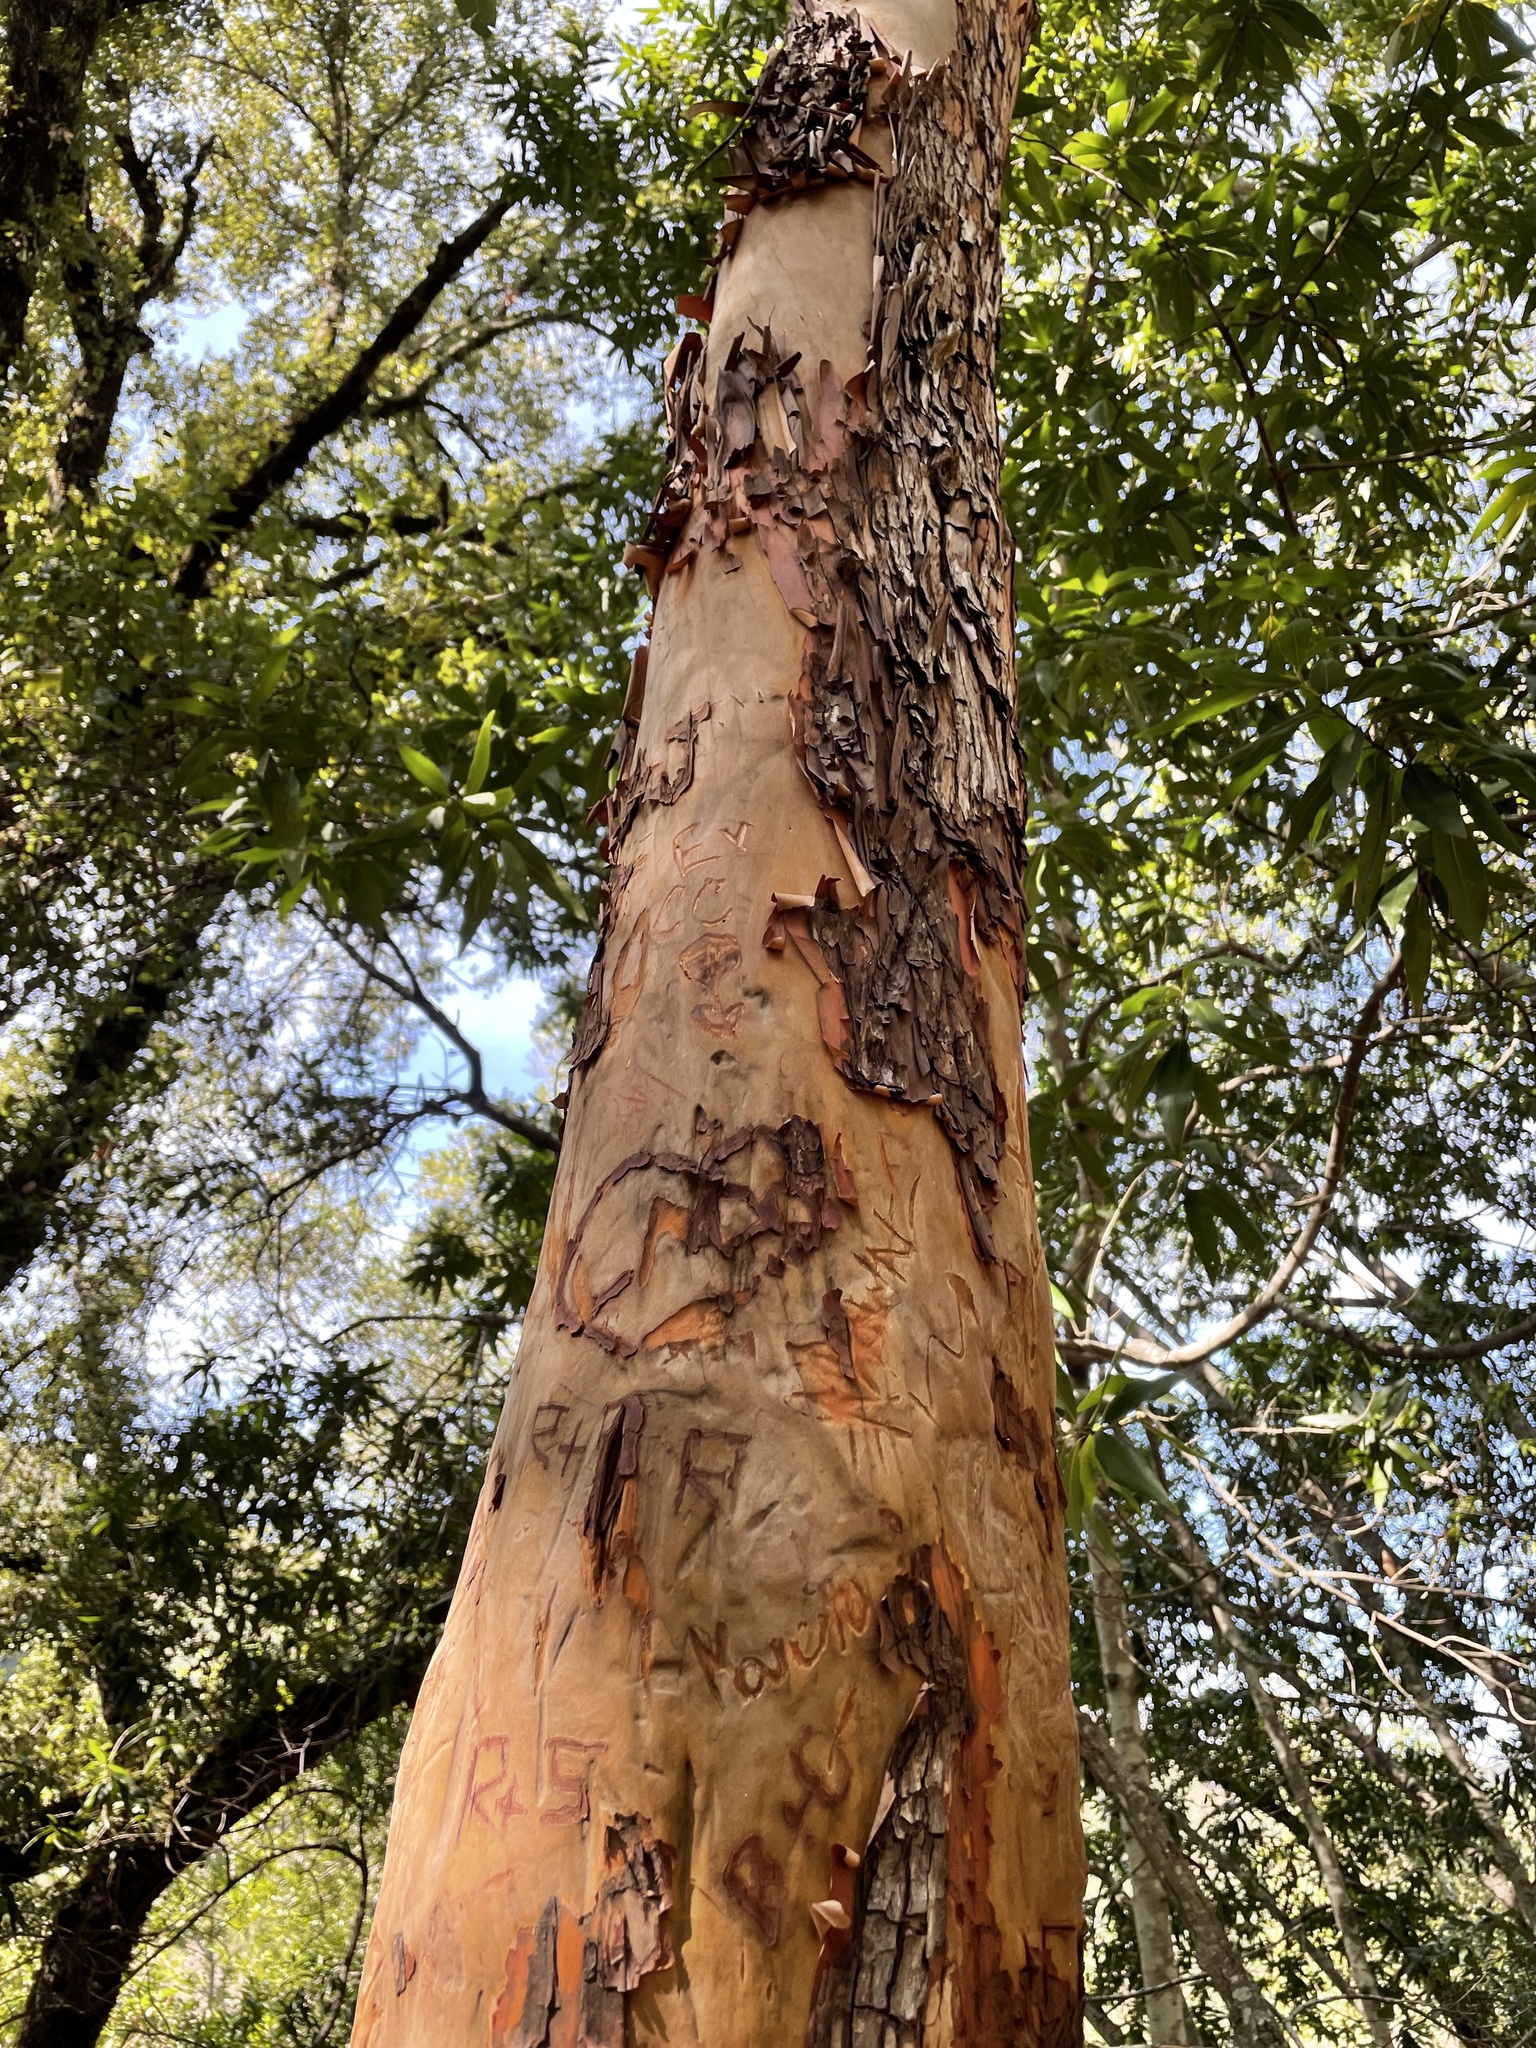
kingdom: Plantae
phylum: Tracheophyta
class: Magnoliopsida
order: Ericales
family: Ericaceae
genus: Arbutus
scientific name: Arbutus menziesii
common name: Pacific madrone
